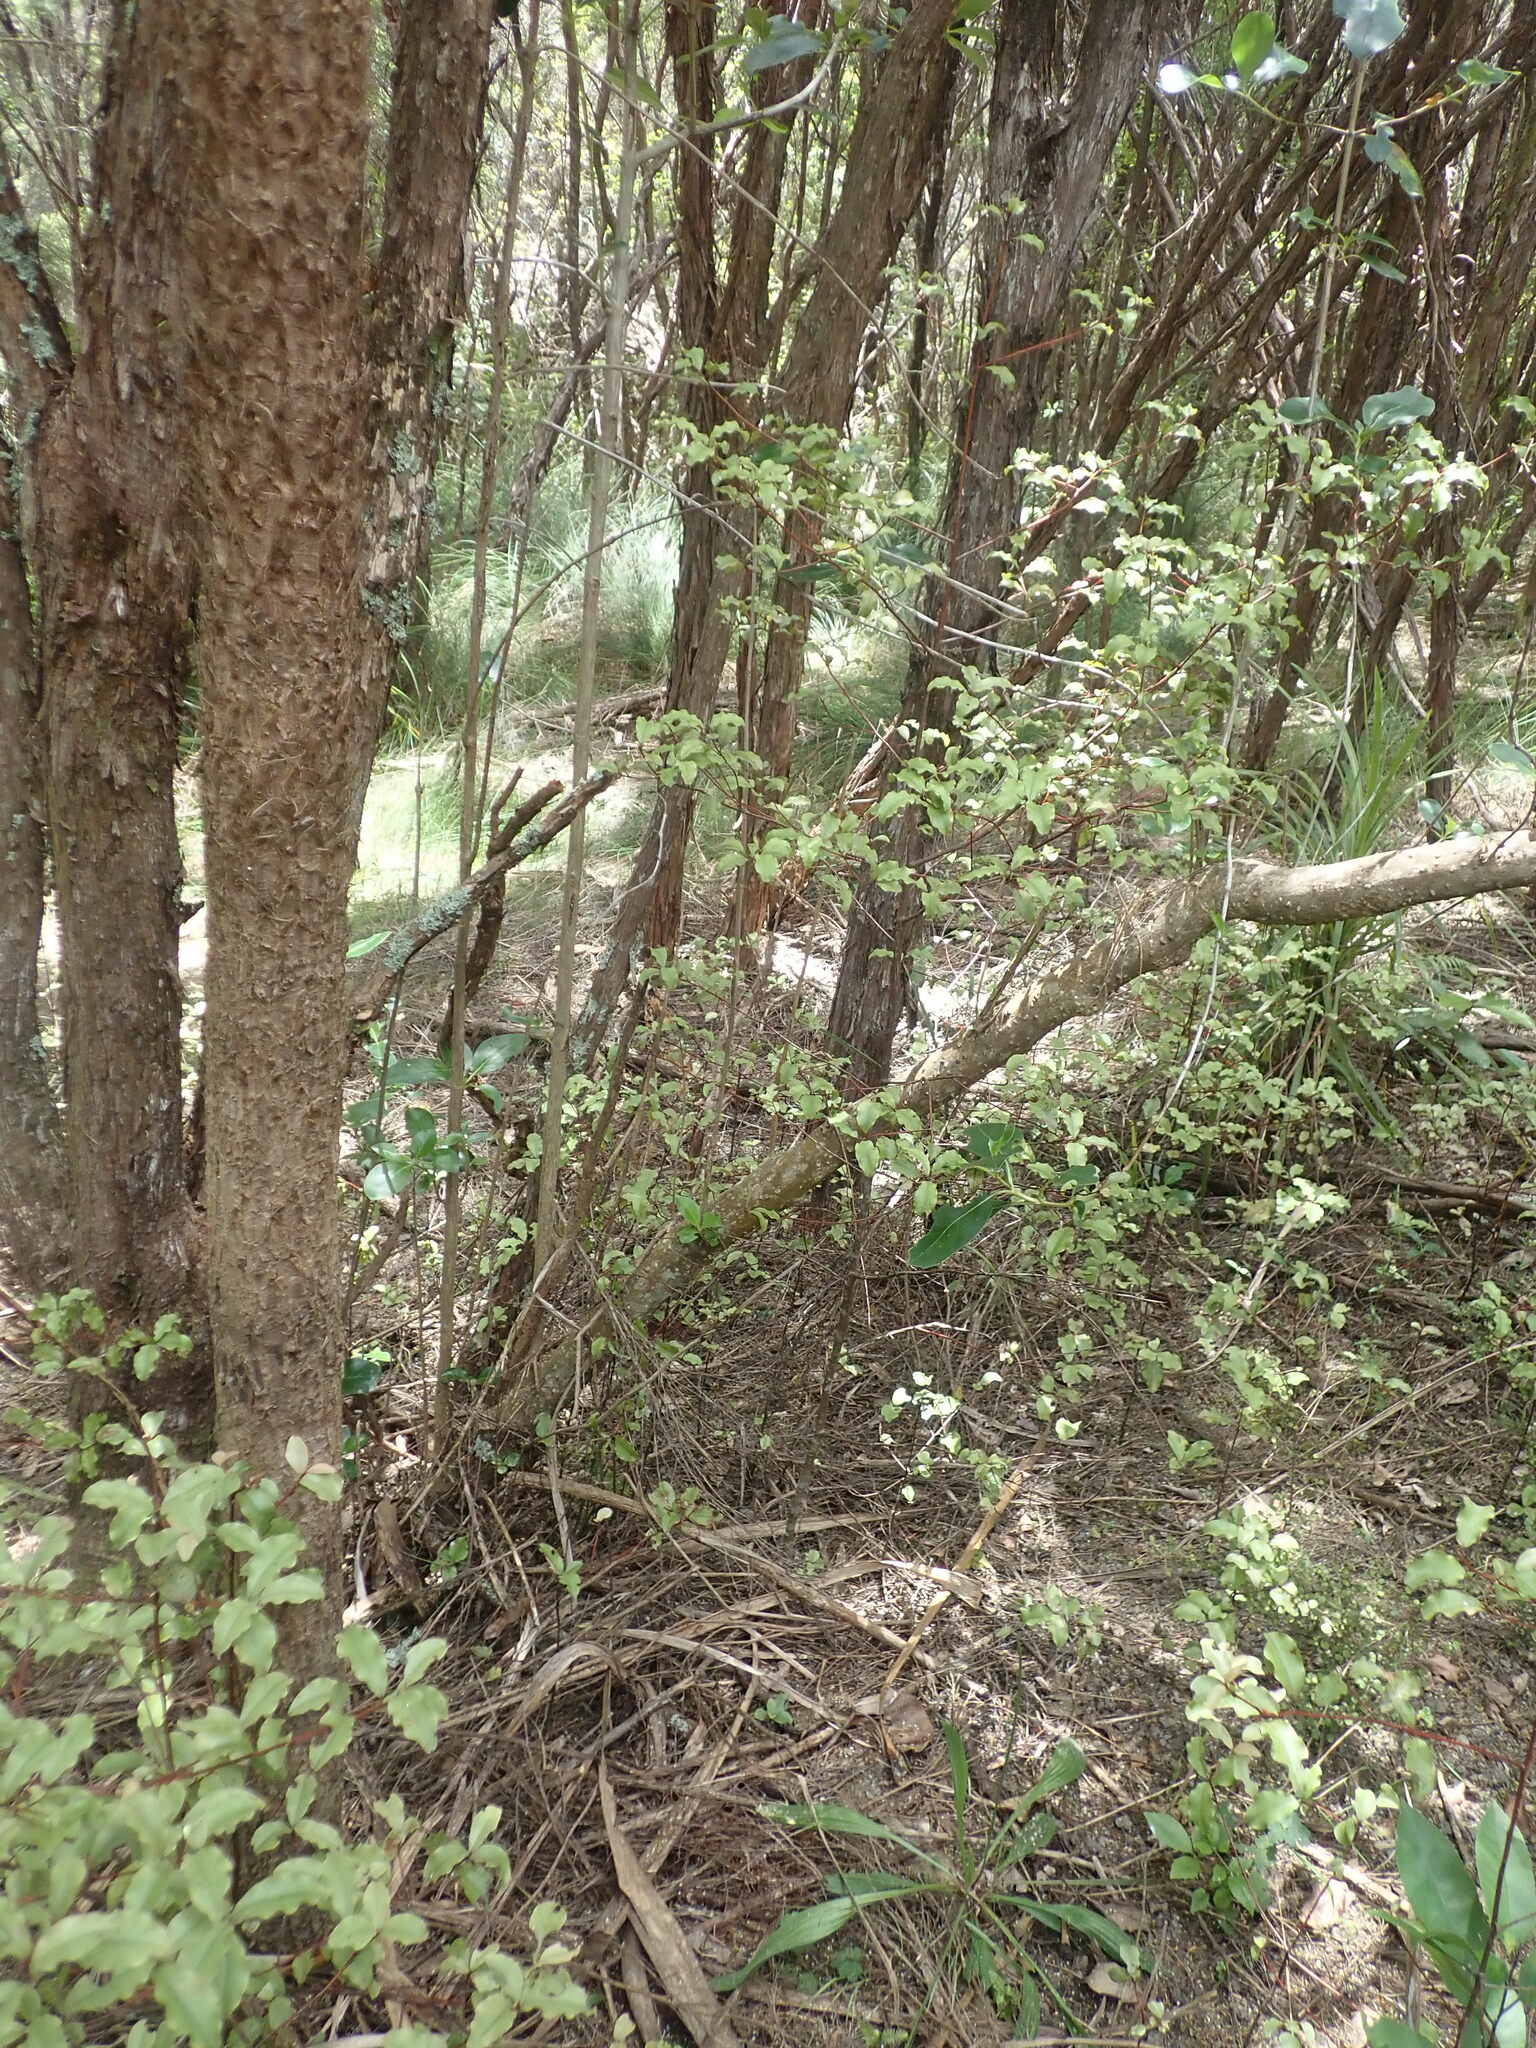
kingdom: Plantae
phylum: Tracheophyta
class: Magnoliopsida
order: Gentianales
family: Rubiaceae
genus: Coprosma
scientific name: Coprosma robusta
